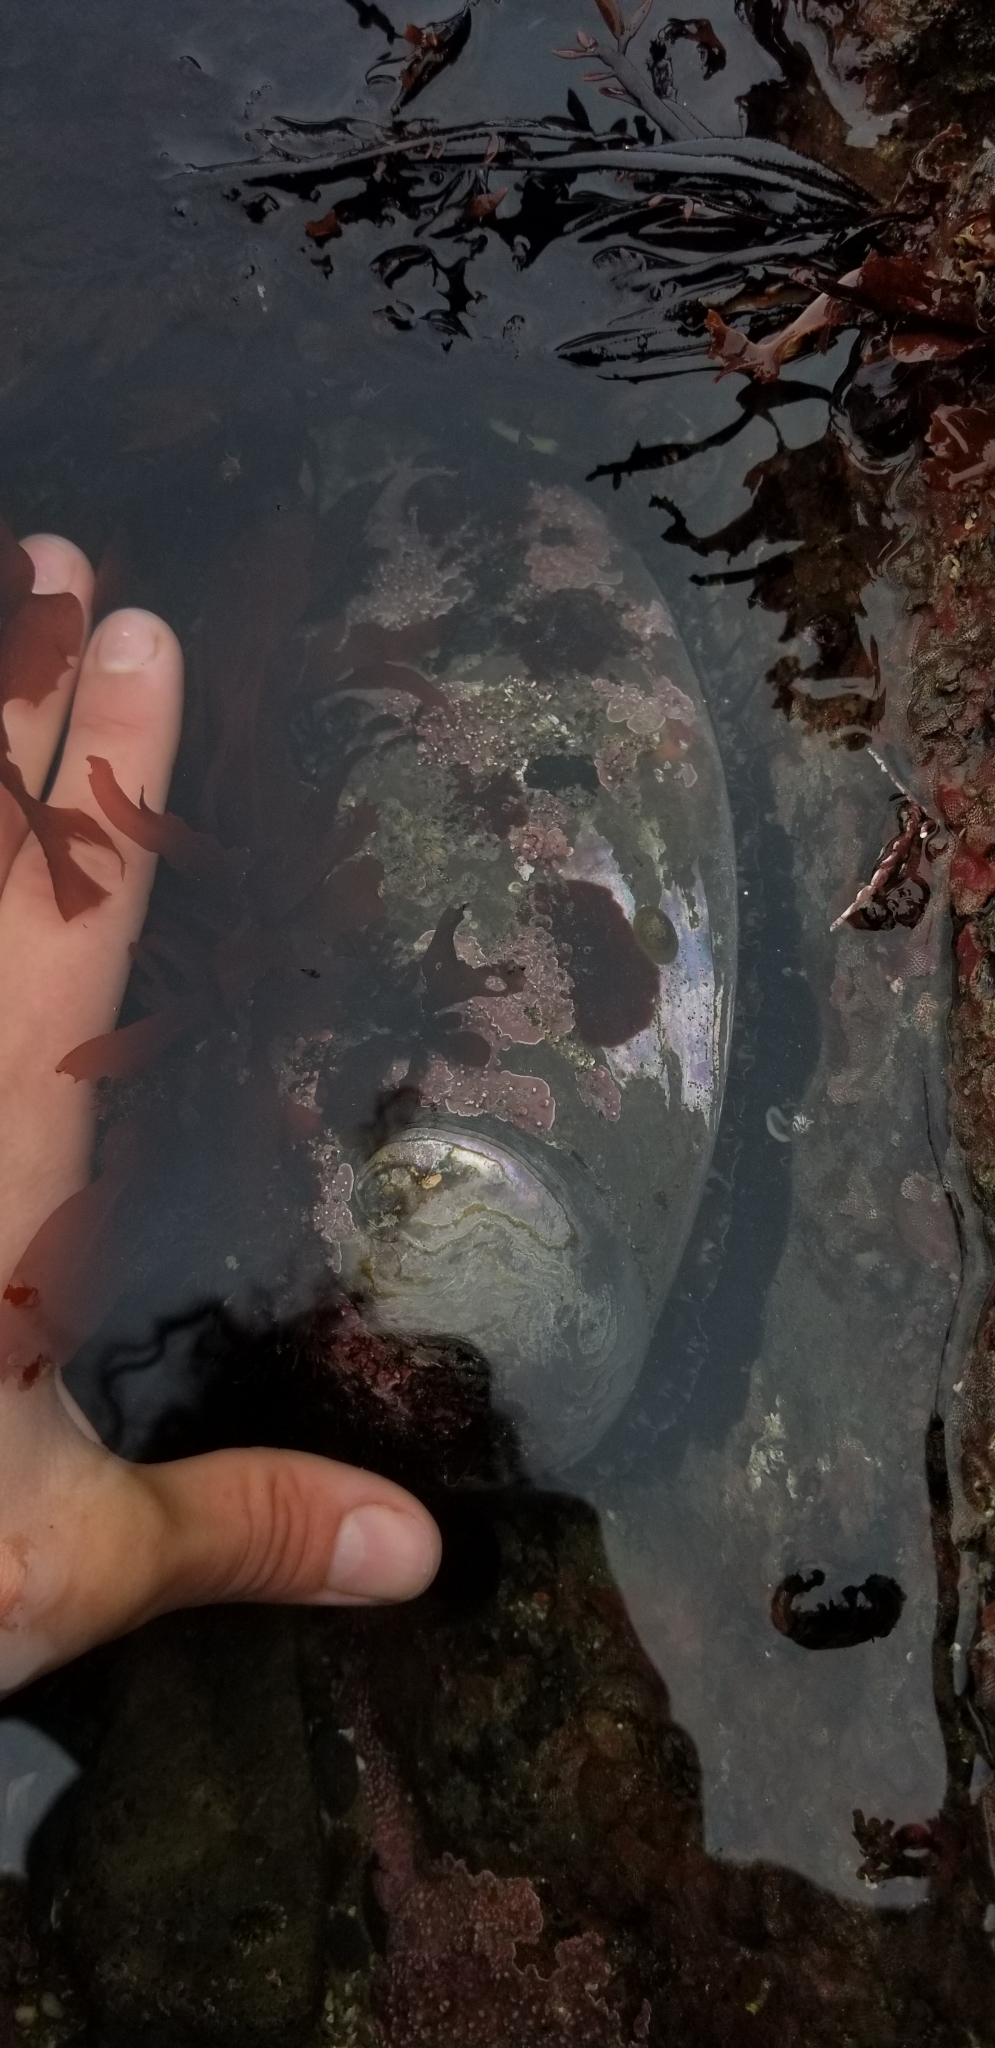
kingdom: Animalia
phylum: Mollusca
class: Gastropoda
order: Lepetellida
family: Haliotidae
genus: Haliotis
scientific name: Haliotis rufescens
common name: Red abalone
